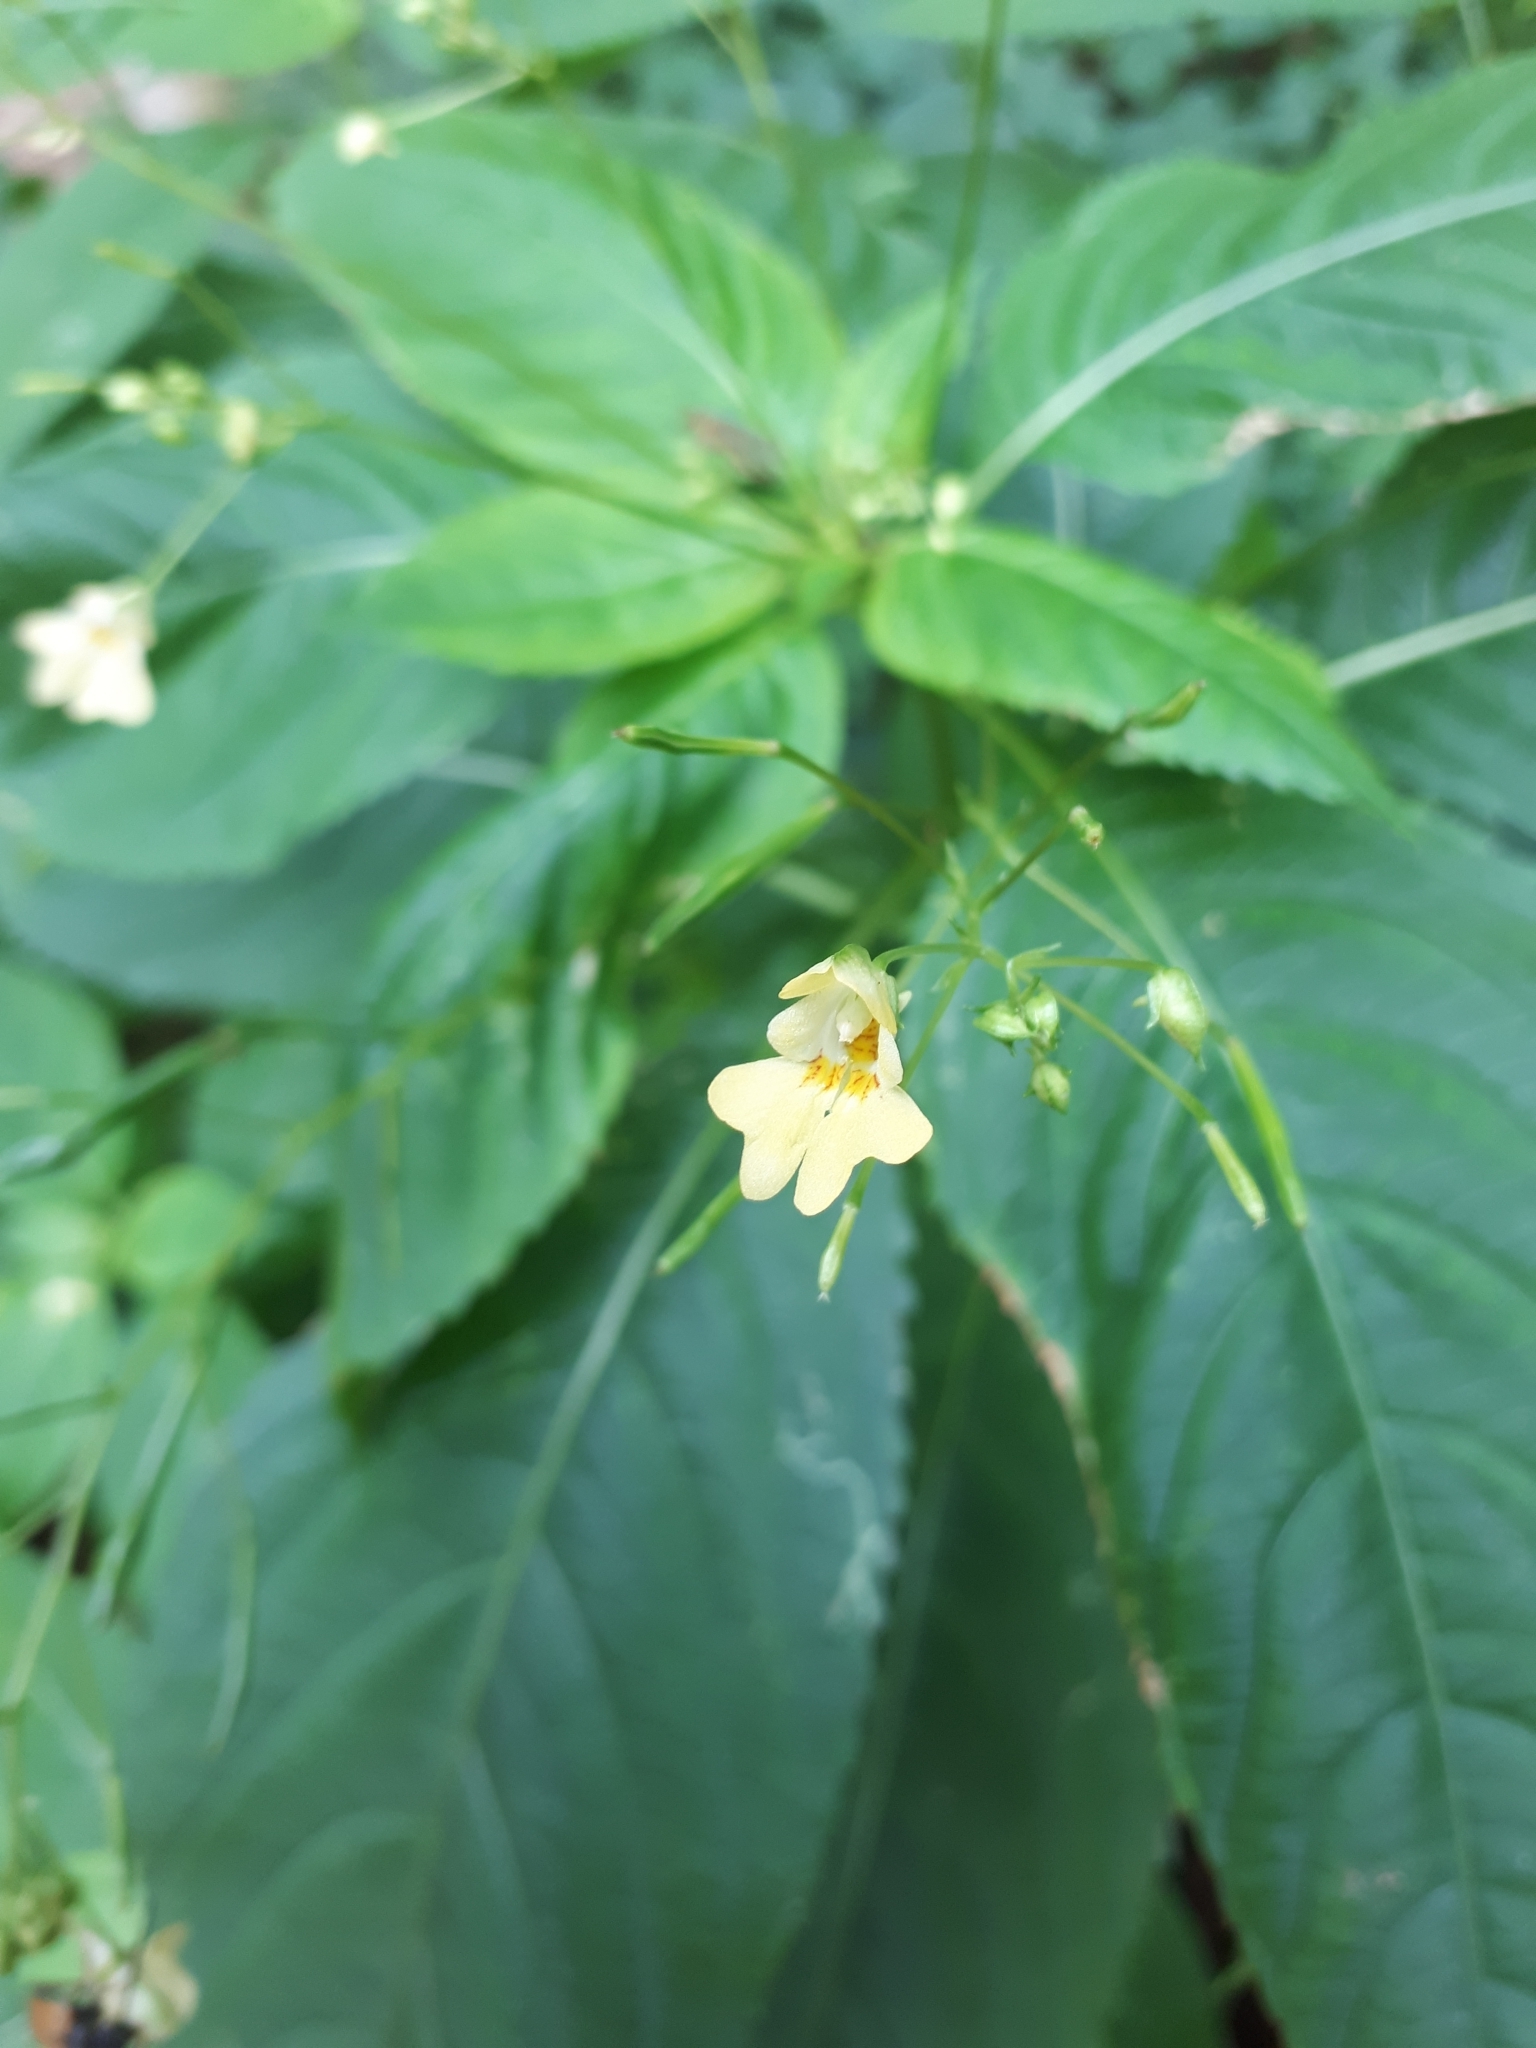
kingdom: Plantae
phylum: Tracheophyta
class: Magnoliopsida
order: Ericales
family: Balsaminaceae
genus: Impatiens
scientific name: Impatiens parviflora
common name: Small balsam
